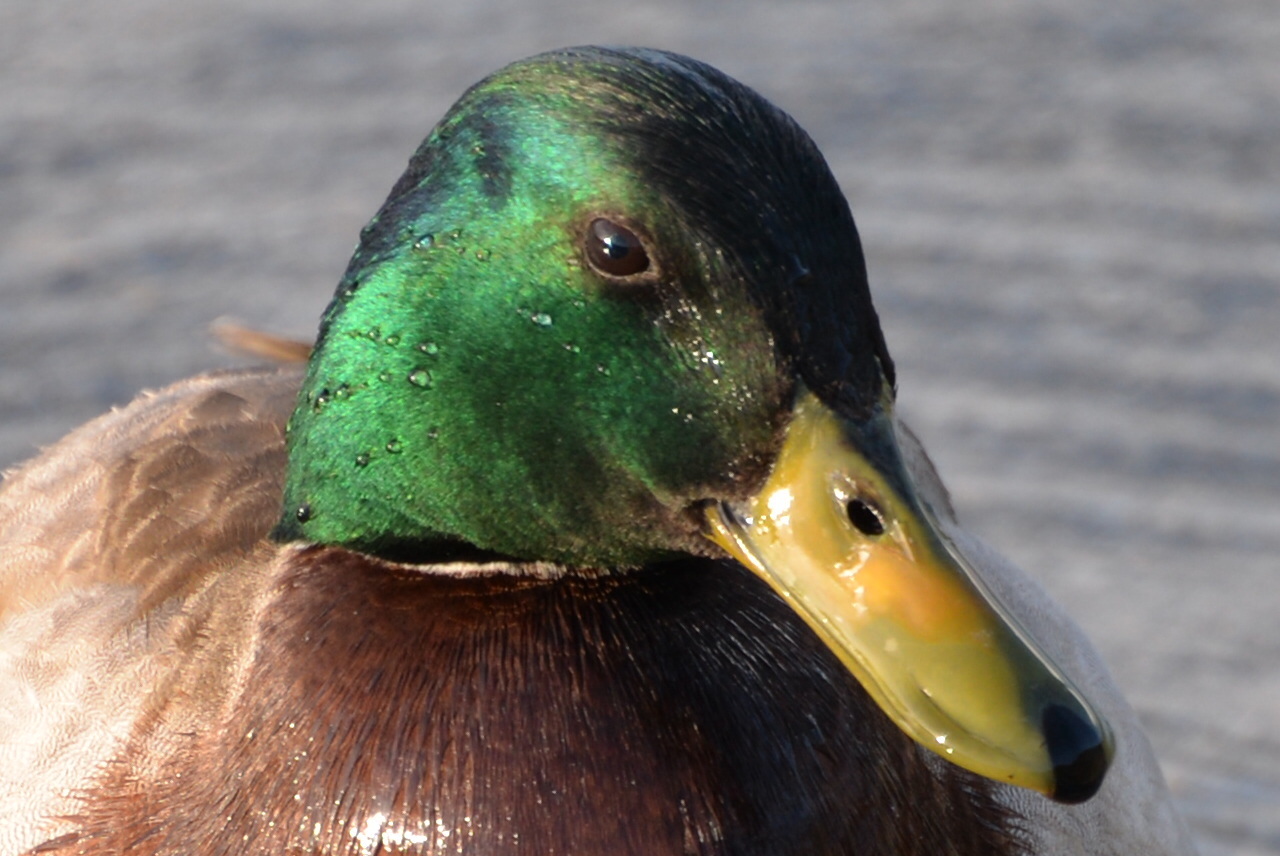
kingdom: Animalia
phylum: Chordata
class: Aves
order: Anseriformes
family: Anatidae
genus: Anas
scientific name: Anas platyrhynchos
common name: Mallard
